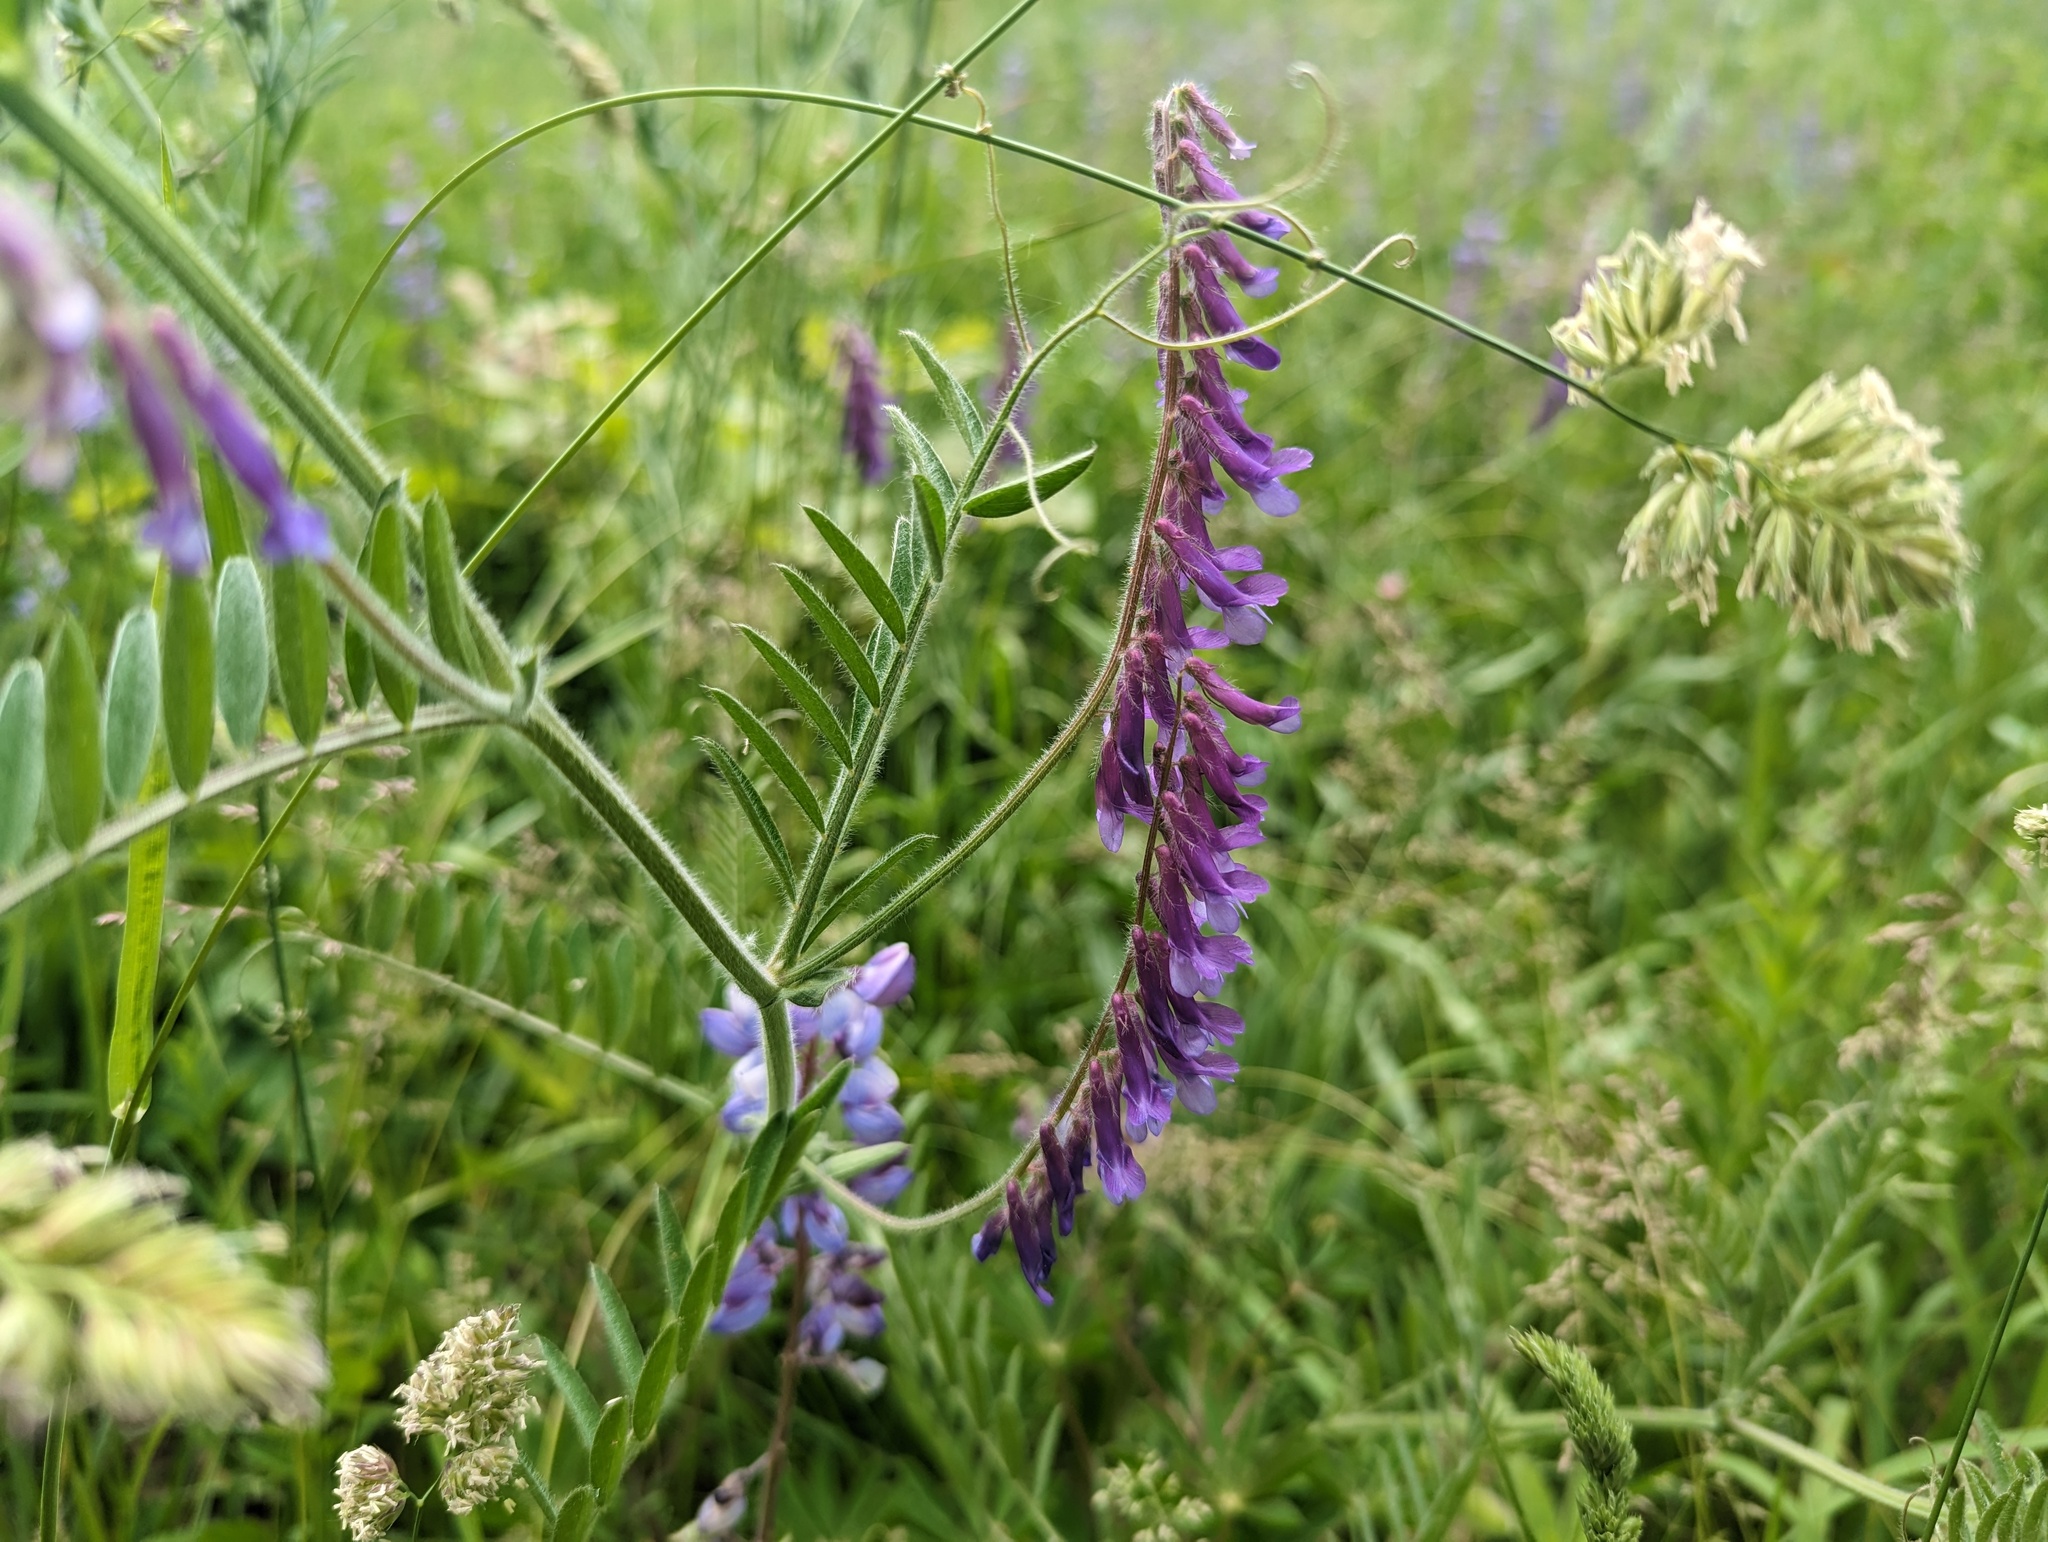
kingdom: Plantae
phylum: Tracheophyta
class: Magnoliopsida
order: Fabales
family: Fabaceae
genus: Vicia
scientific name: Vicia villosa
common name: Fodder vetch
